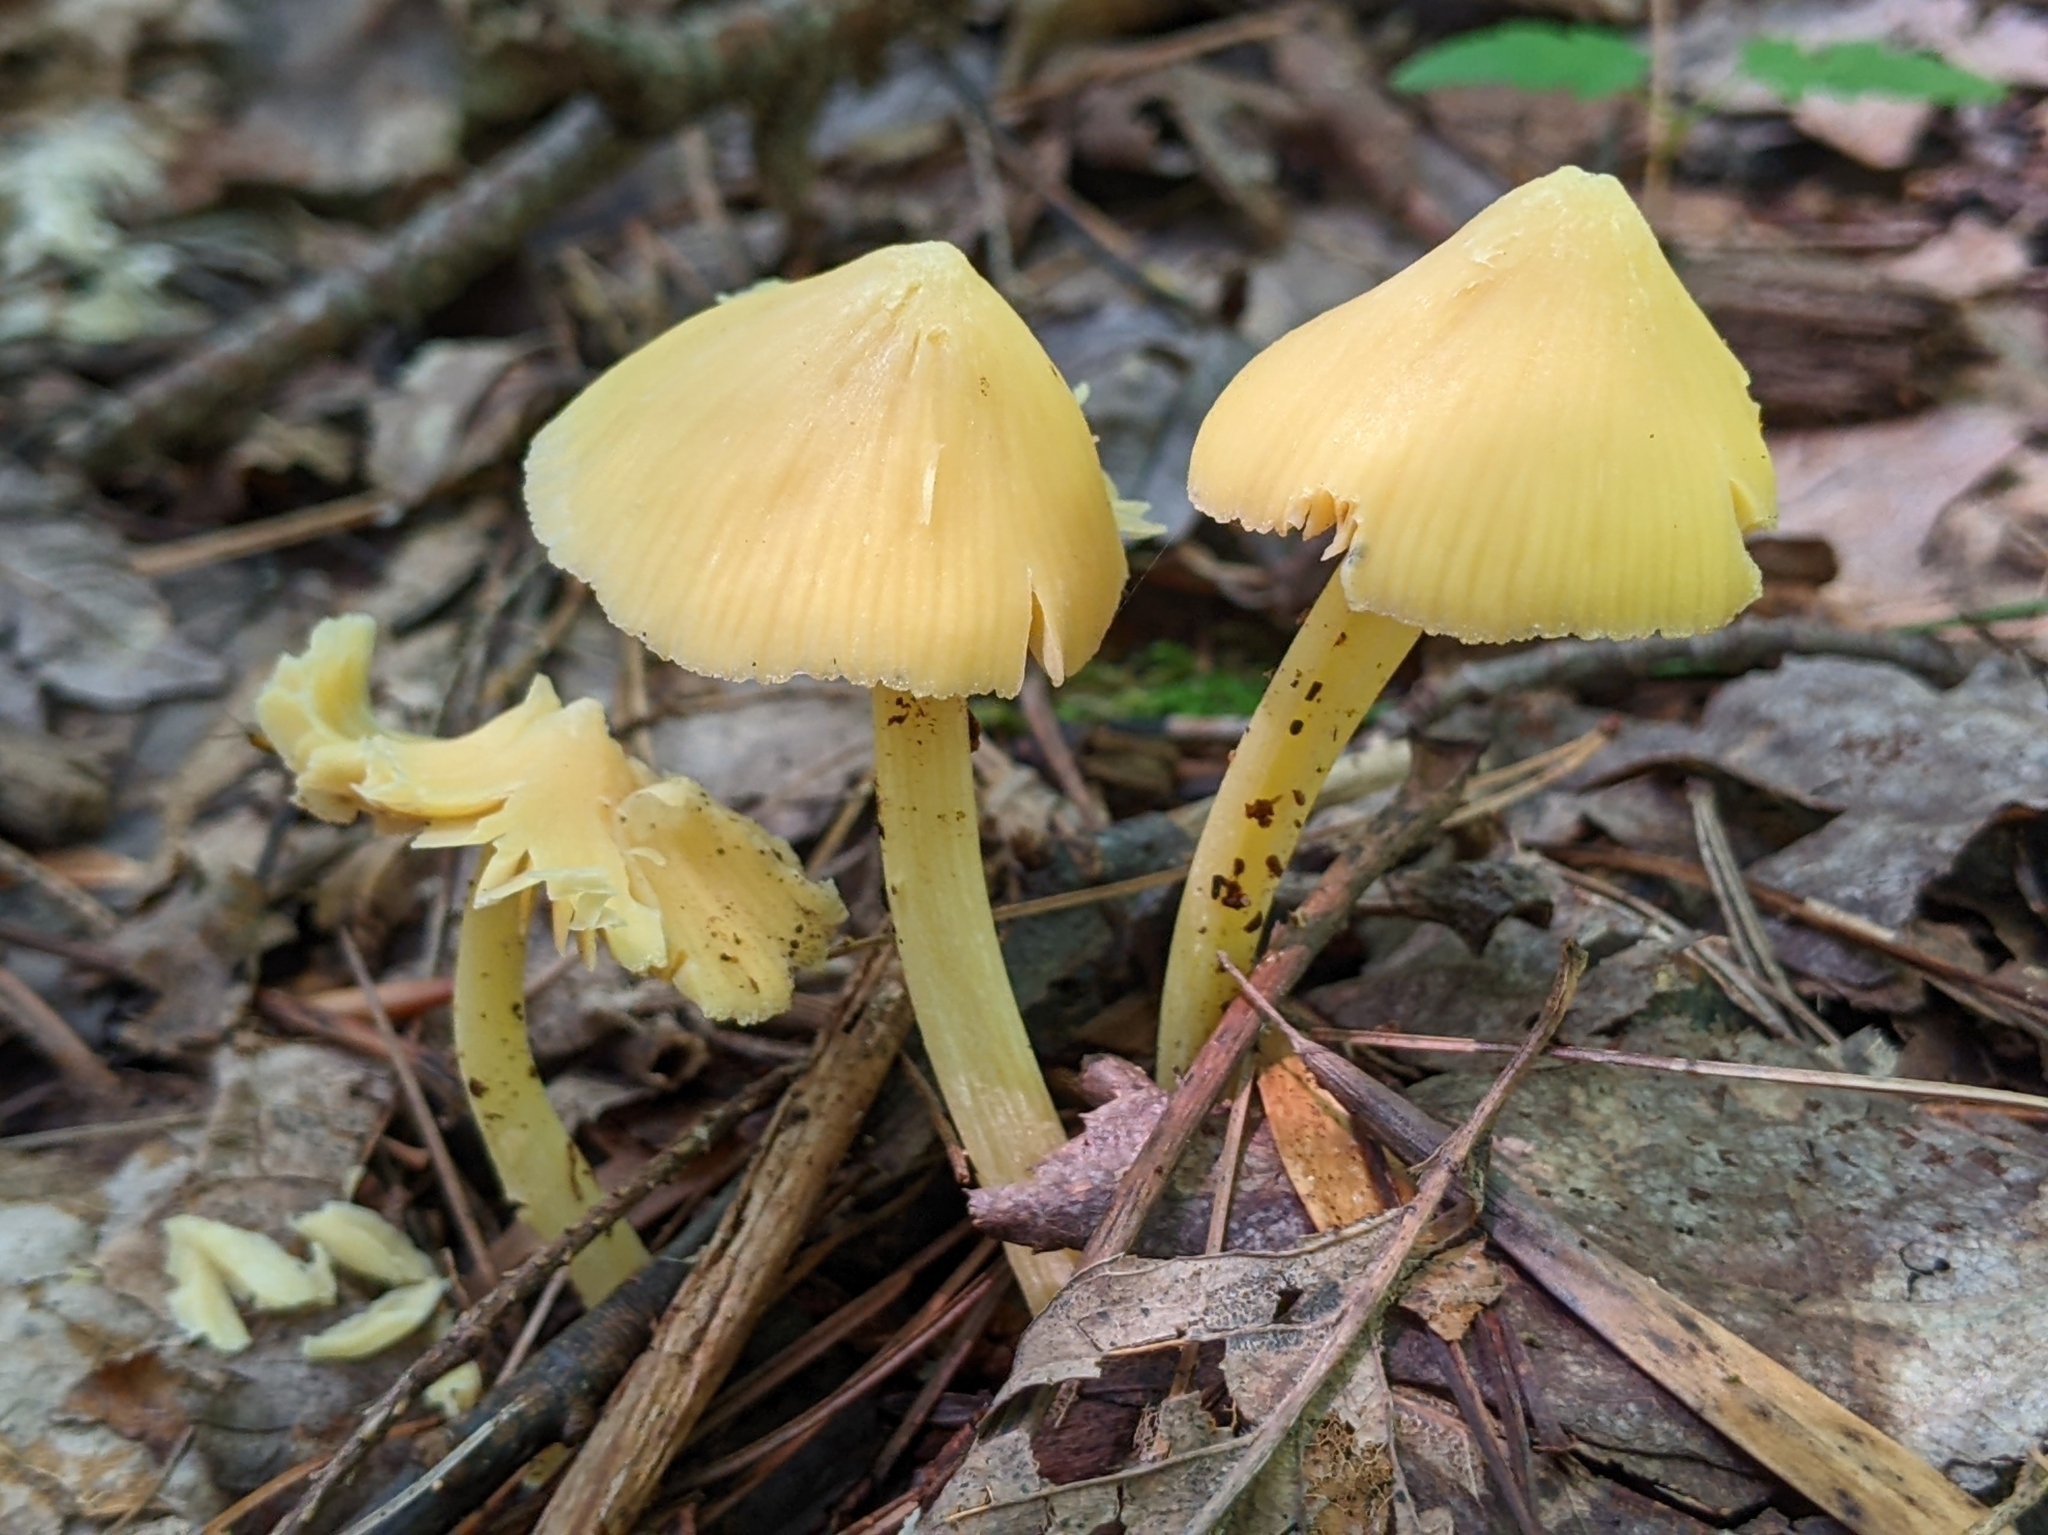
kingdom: Fungi
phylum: Basidiomycota
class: Agaricomycetes
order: Agaricales
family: Entolomataceae
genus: Entoloma
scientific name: Entoloma murrayi
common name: Yellow unicorn entoloma
